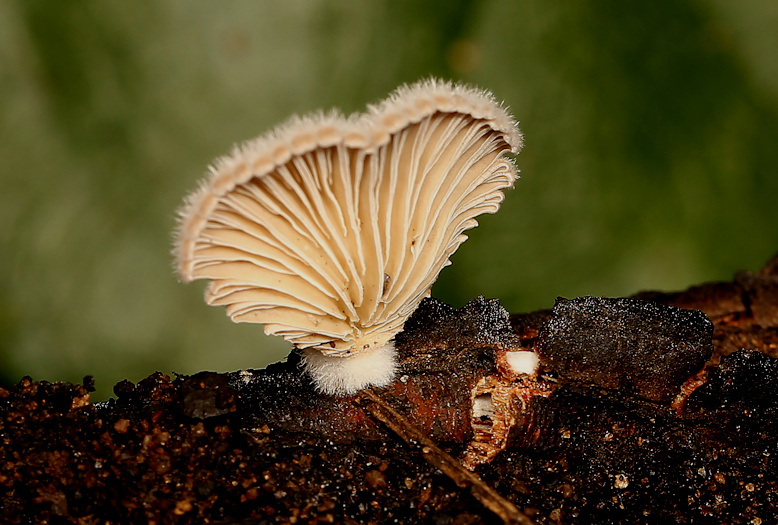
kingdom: Fungi
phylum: Basidiomycota
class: Agaricomycetes
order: Agaricales
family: Schizophyllaceae
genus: Schizophyllum
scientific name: Schizophyllum commune
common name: Common porecrust
